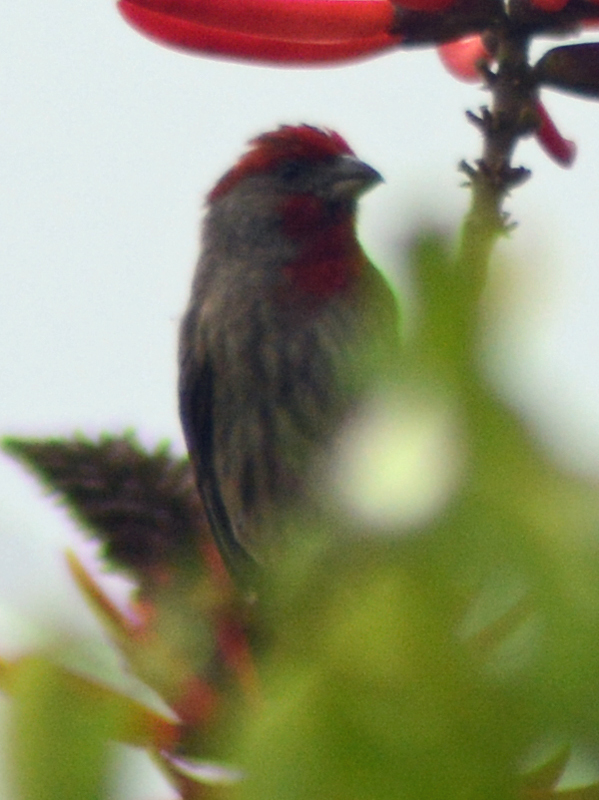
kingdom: Animalia
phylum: Chordata
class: Aves
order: Passeriformes
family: Fringillidae
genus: Haemorhous
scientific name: Haemorhous mexicanus
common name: House finch
